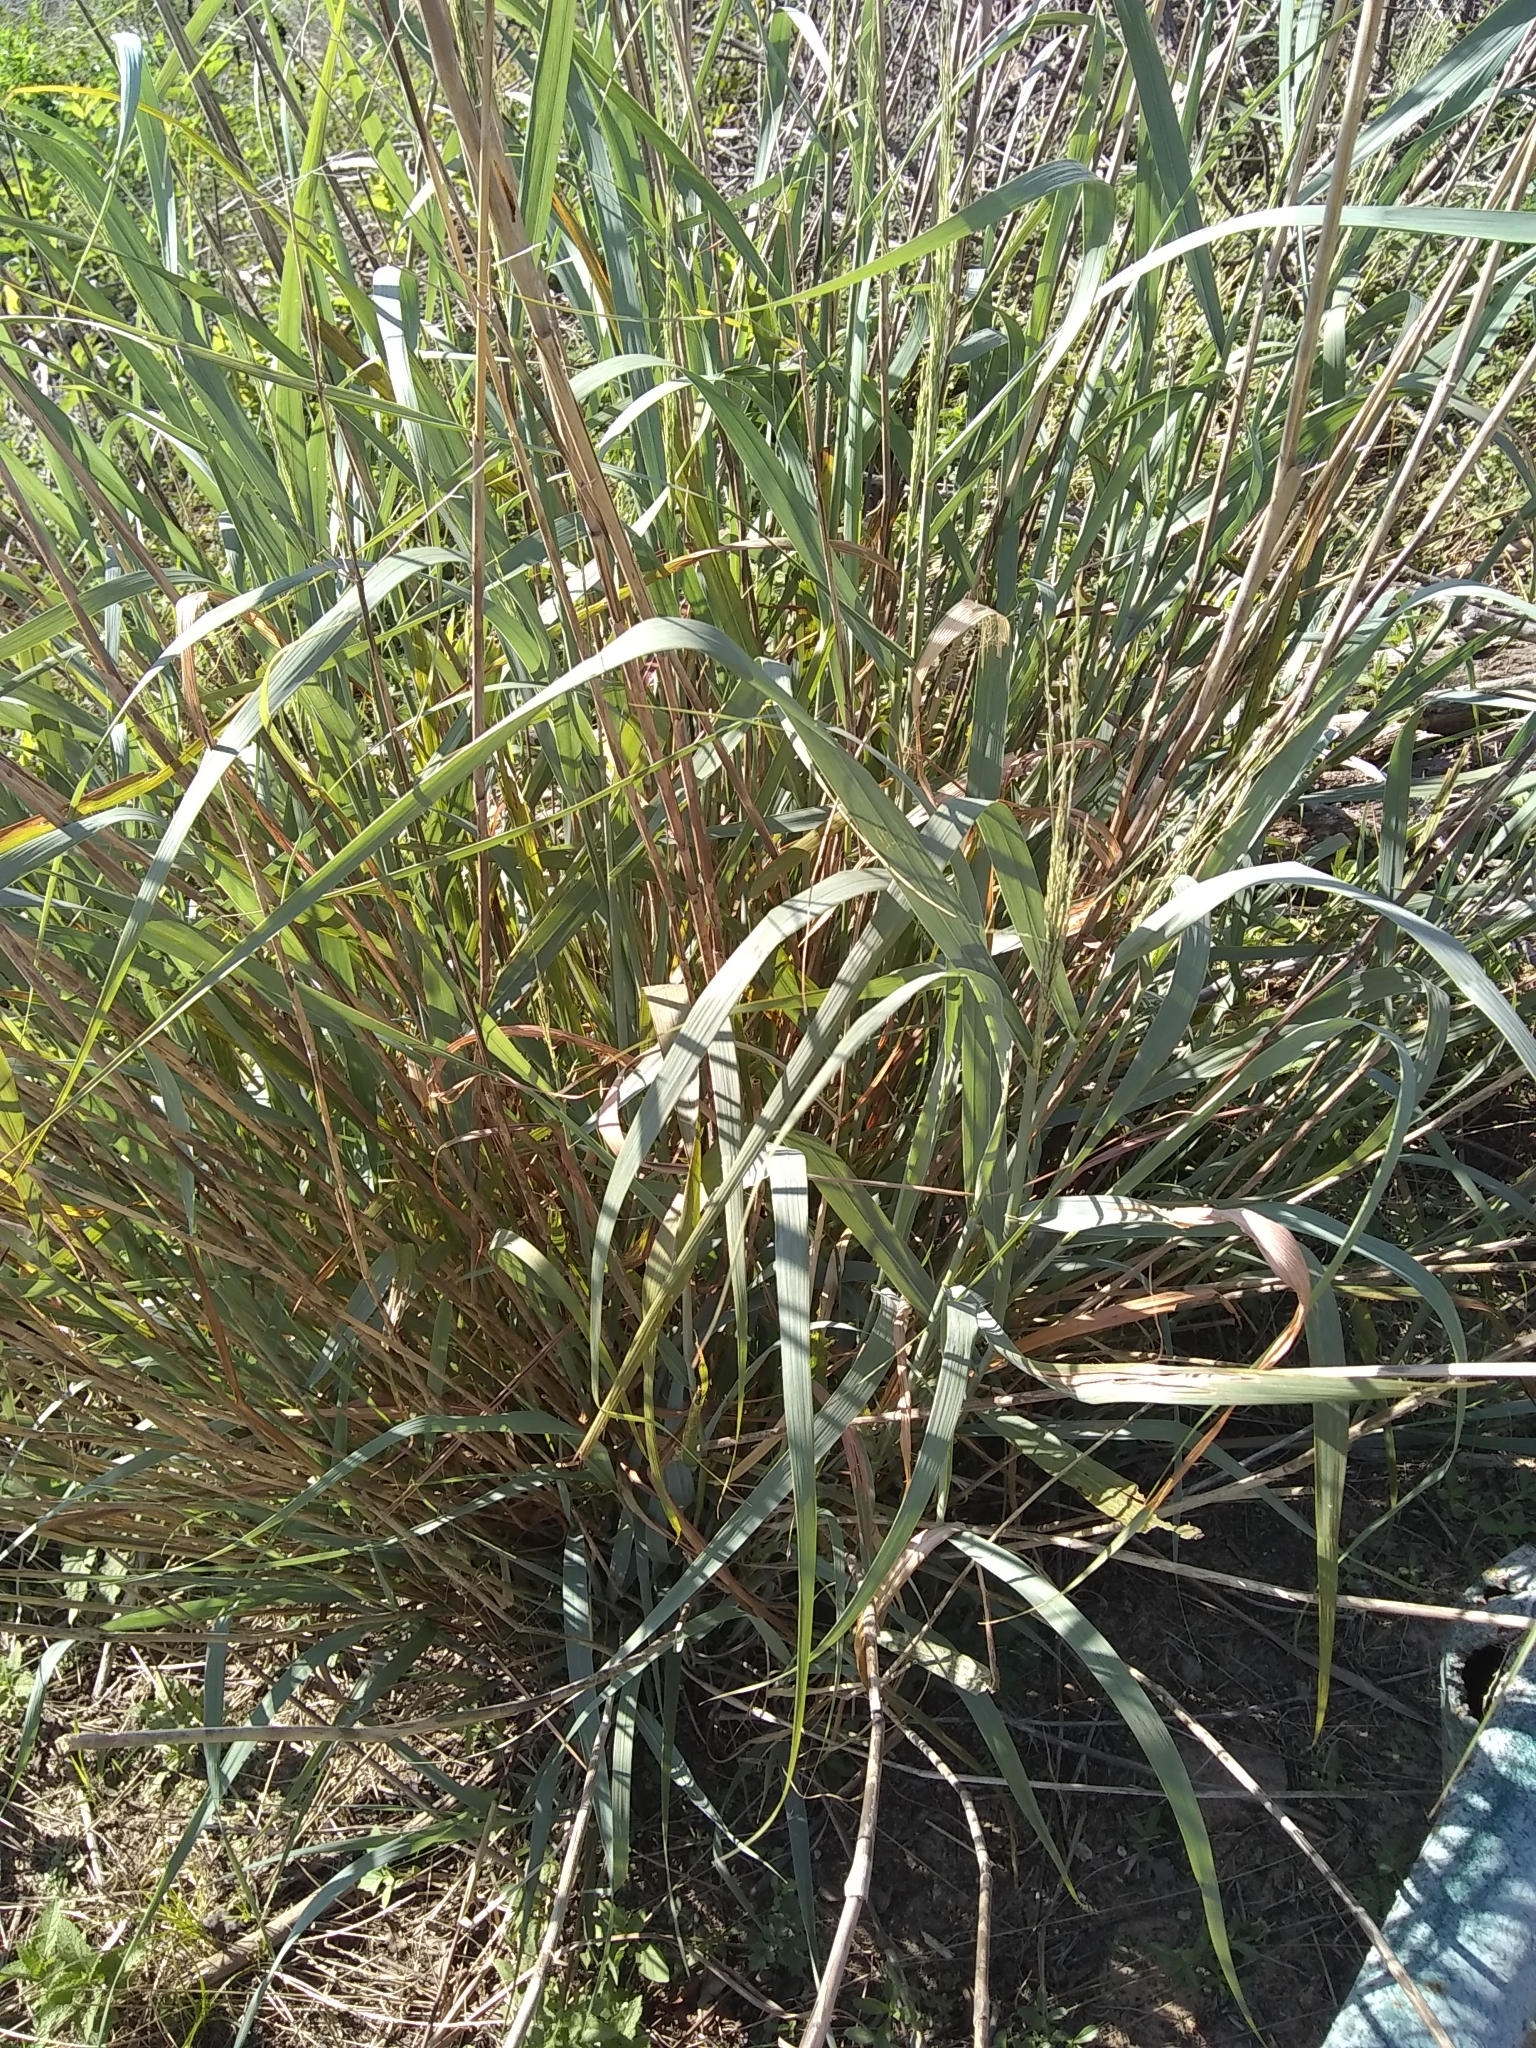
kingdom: Plantae
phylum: Tracheophyta
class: Liliopsida
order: Poales
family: Poaceae
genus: Panicum
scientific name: Panicum virgatum
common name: Switchgrass
